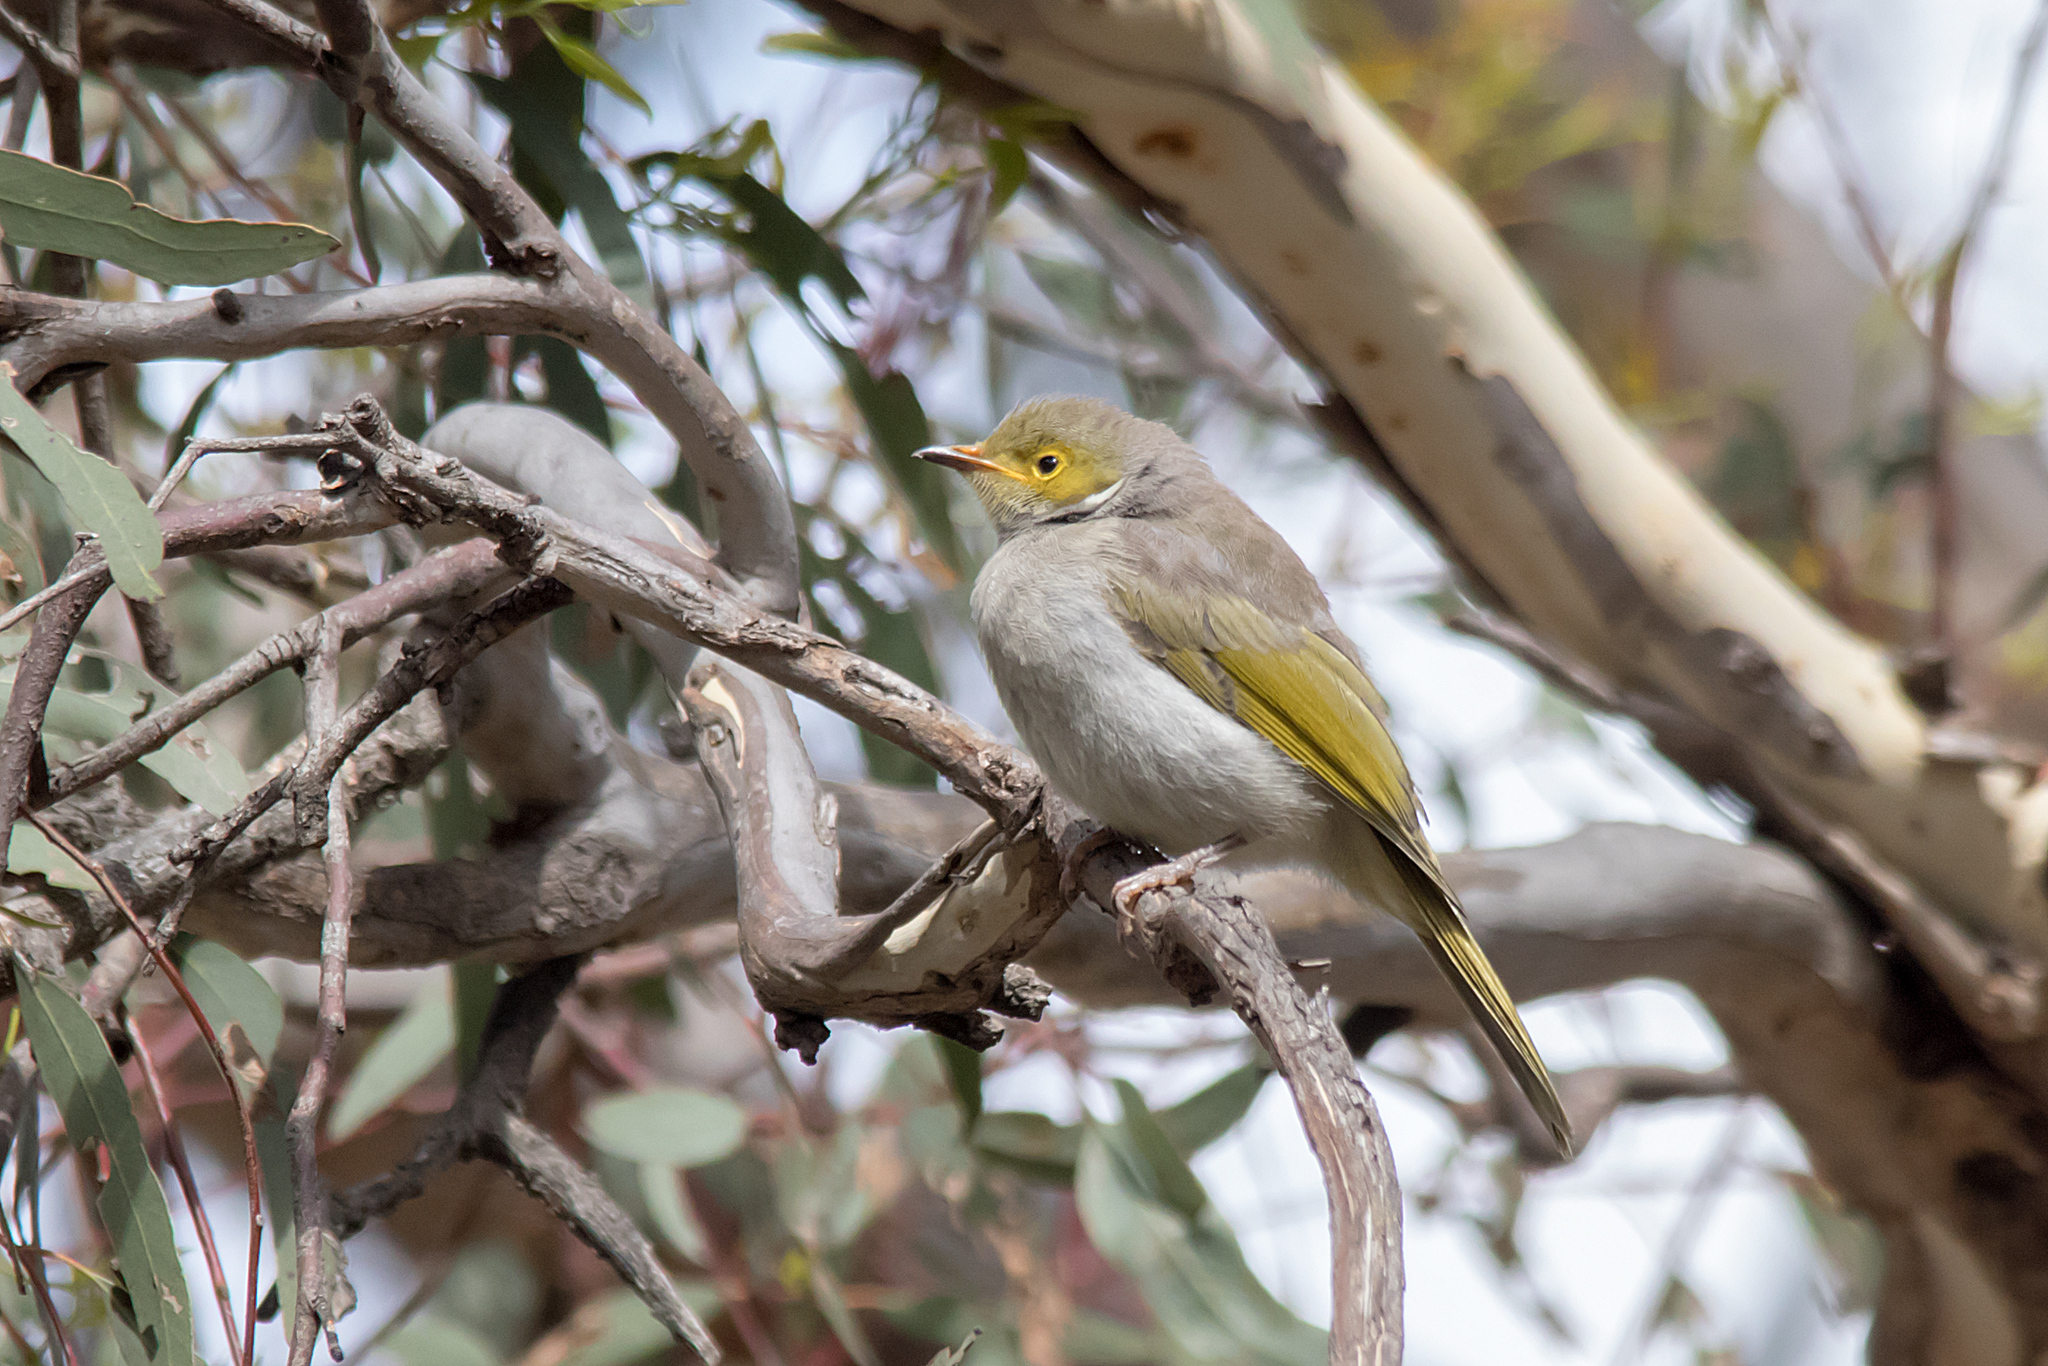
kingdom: Animalia
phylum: Chordata
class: Aves
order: Passeriformes
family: Meliphagidae
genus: Ptilotula
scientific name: Ptilotula penicillata
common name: White-plumed honeyeater
